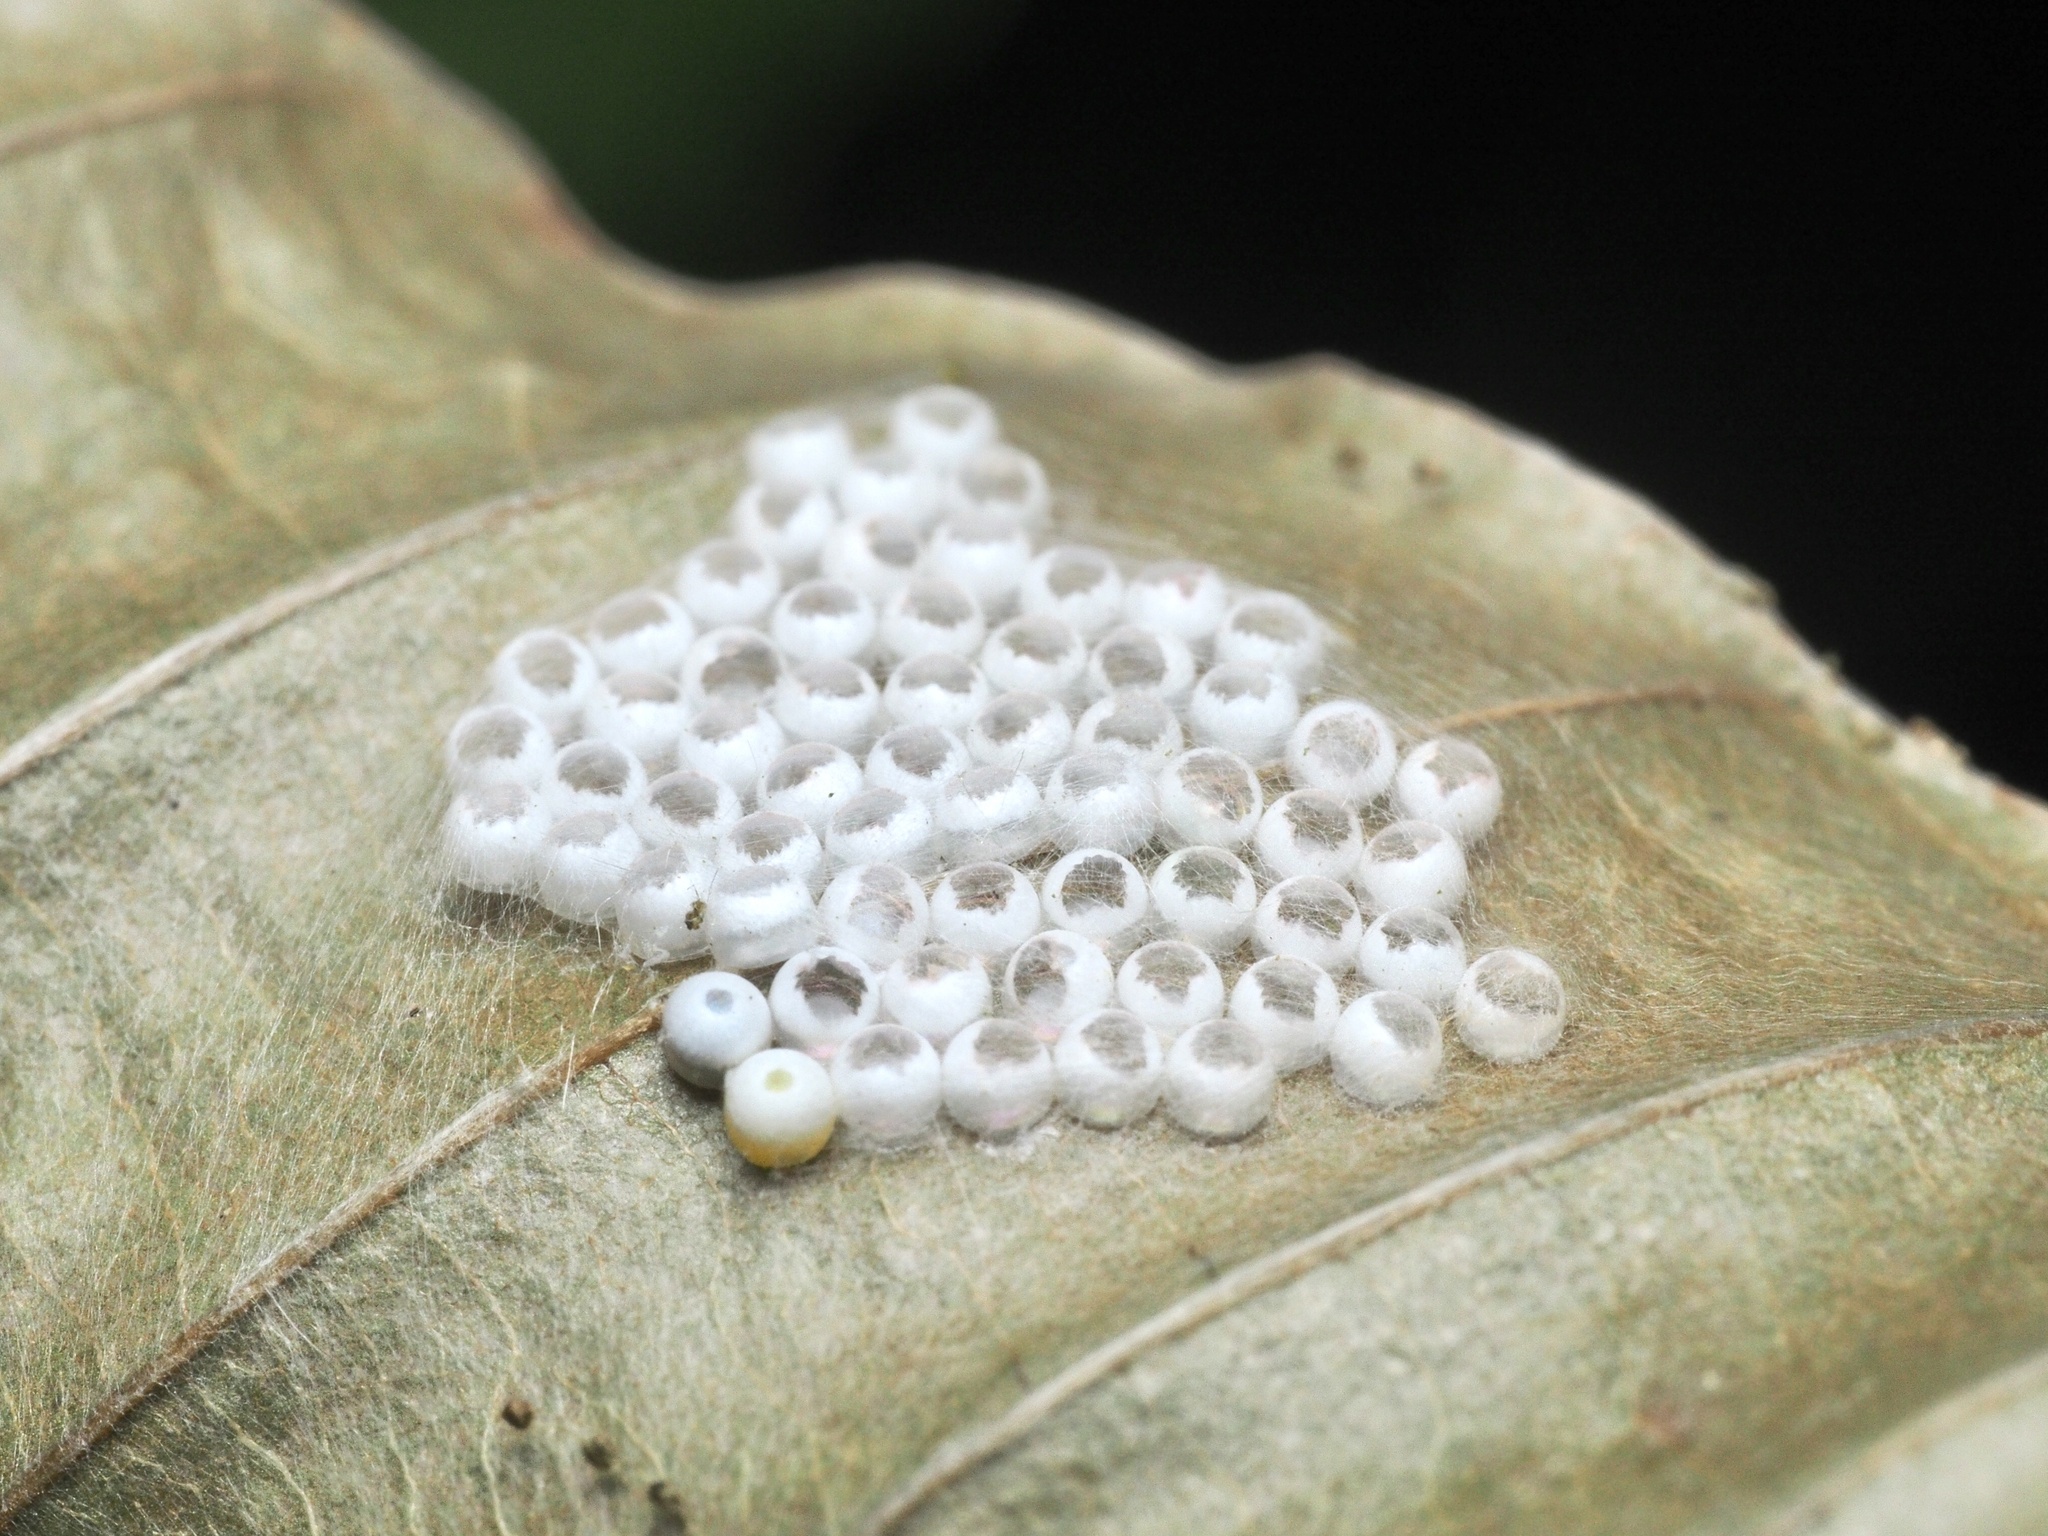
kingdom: Animalia
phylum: Arthropoda
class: Insecta
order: Lepidoptera
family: Notodontidae
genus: Phalera
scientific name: Phalera bucephala
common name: Buff-tip
